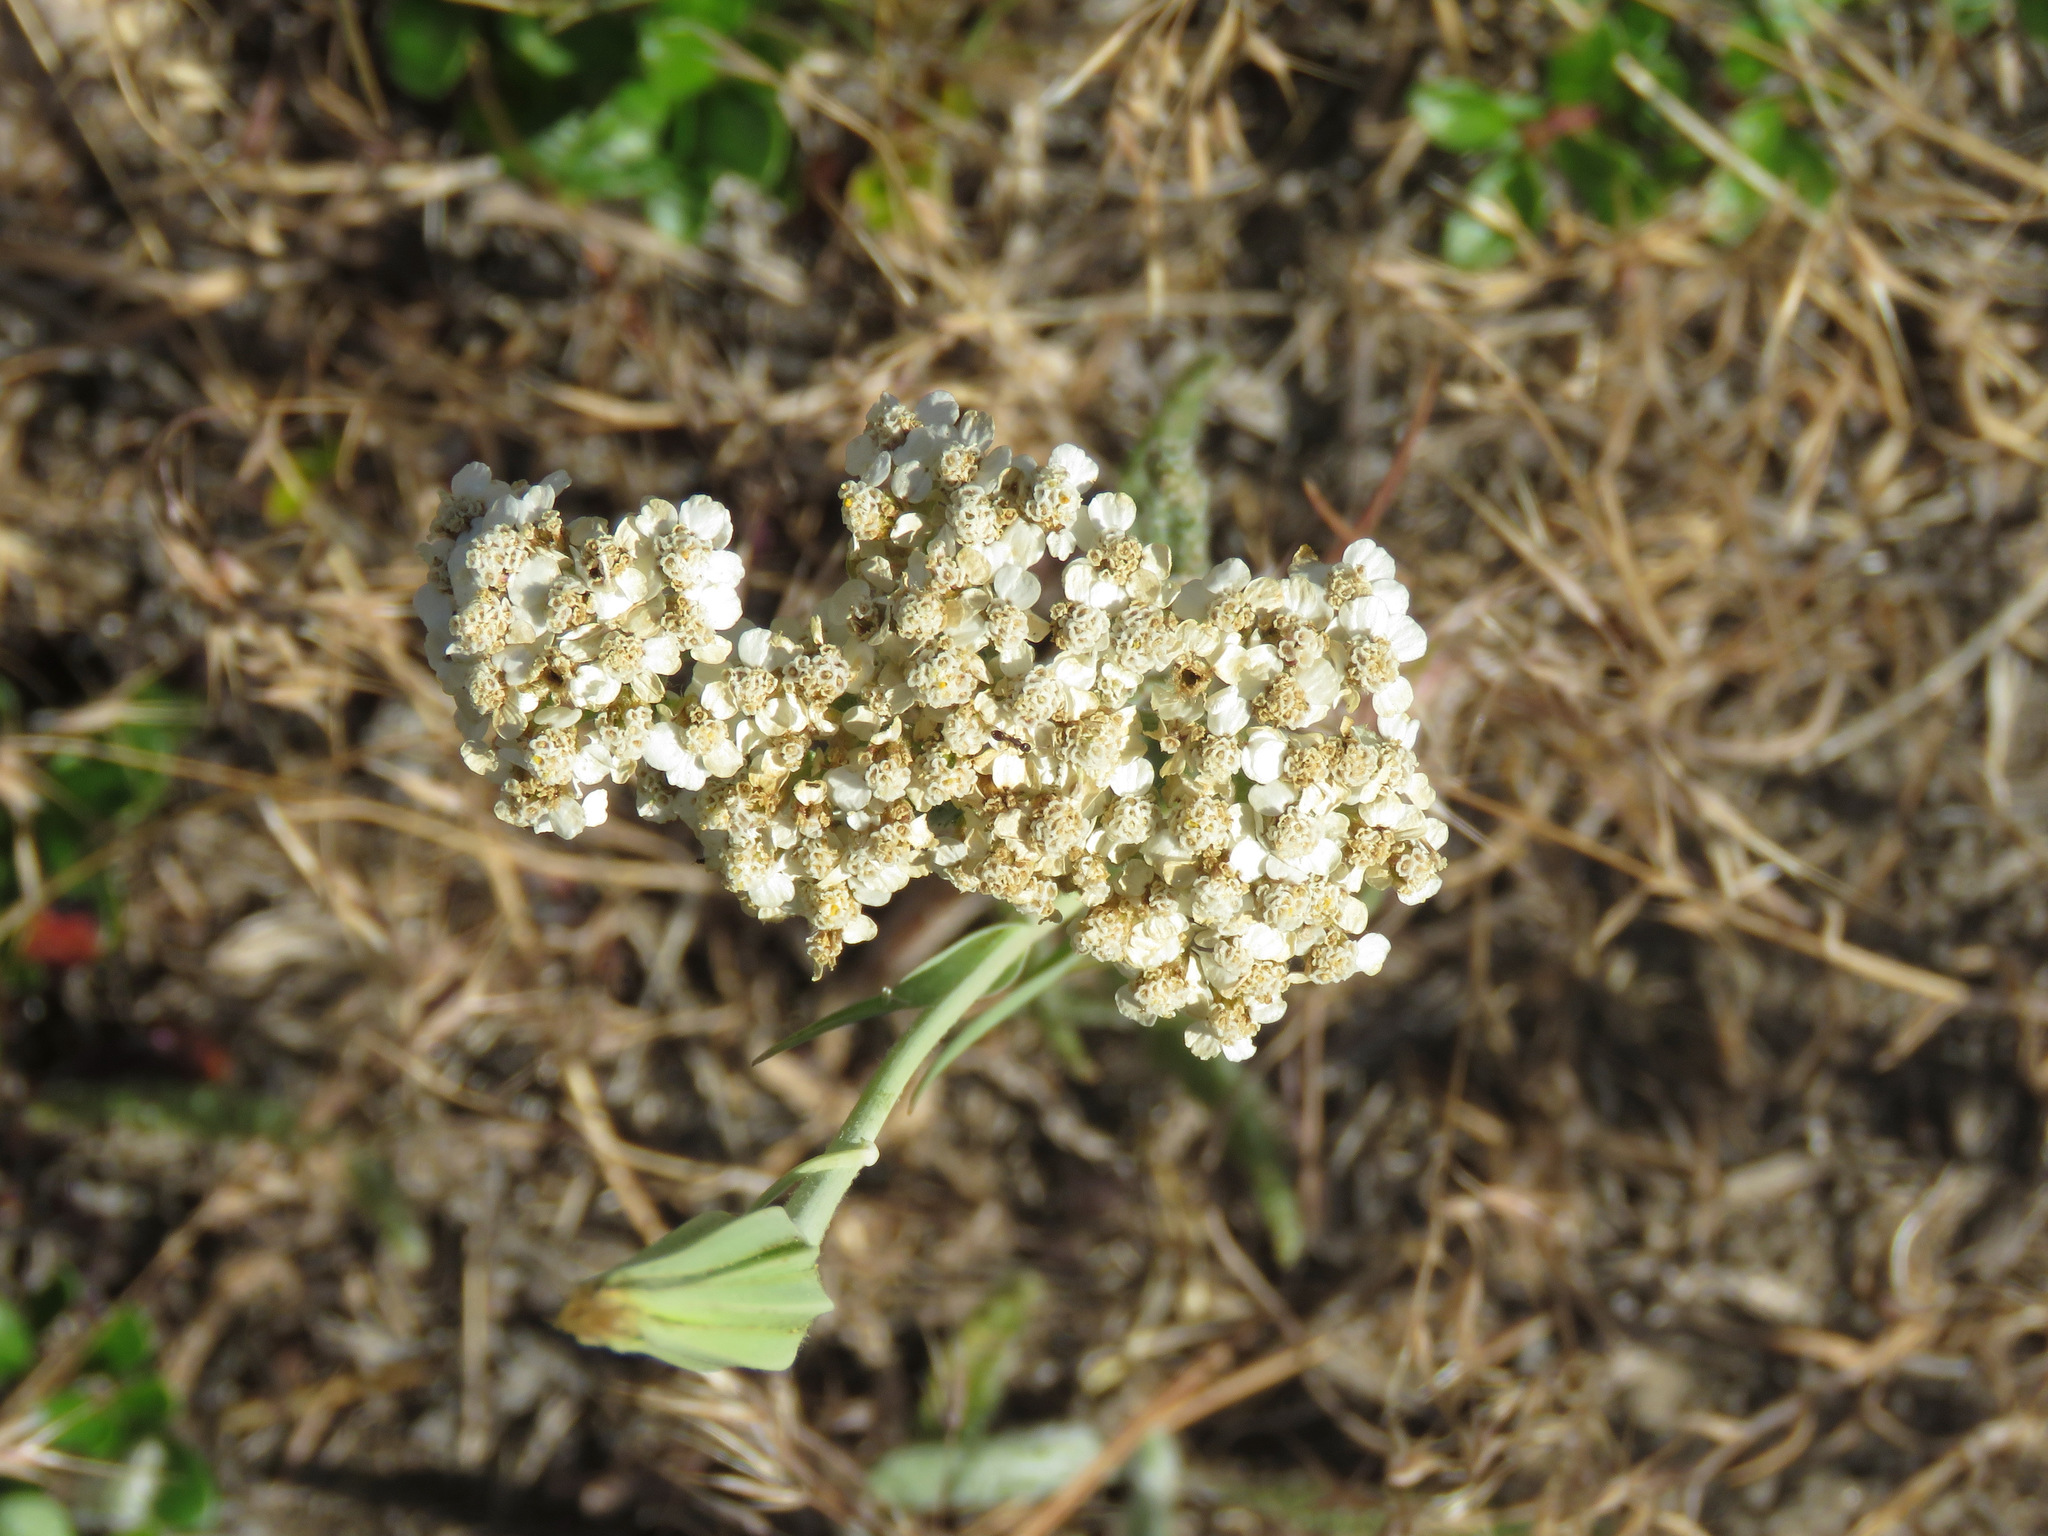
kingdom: Plantae
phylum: Tracheophyta
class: Magnoliopsida
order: Asterales
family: Asteraceae
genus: Achillea
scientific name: Achillea millefolium
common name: Yarrow
